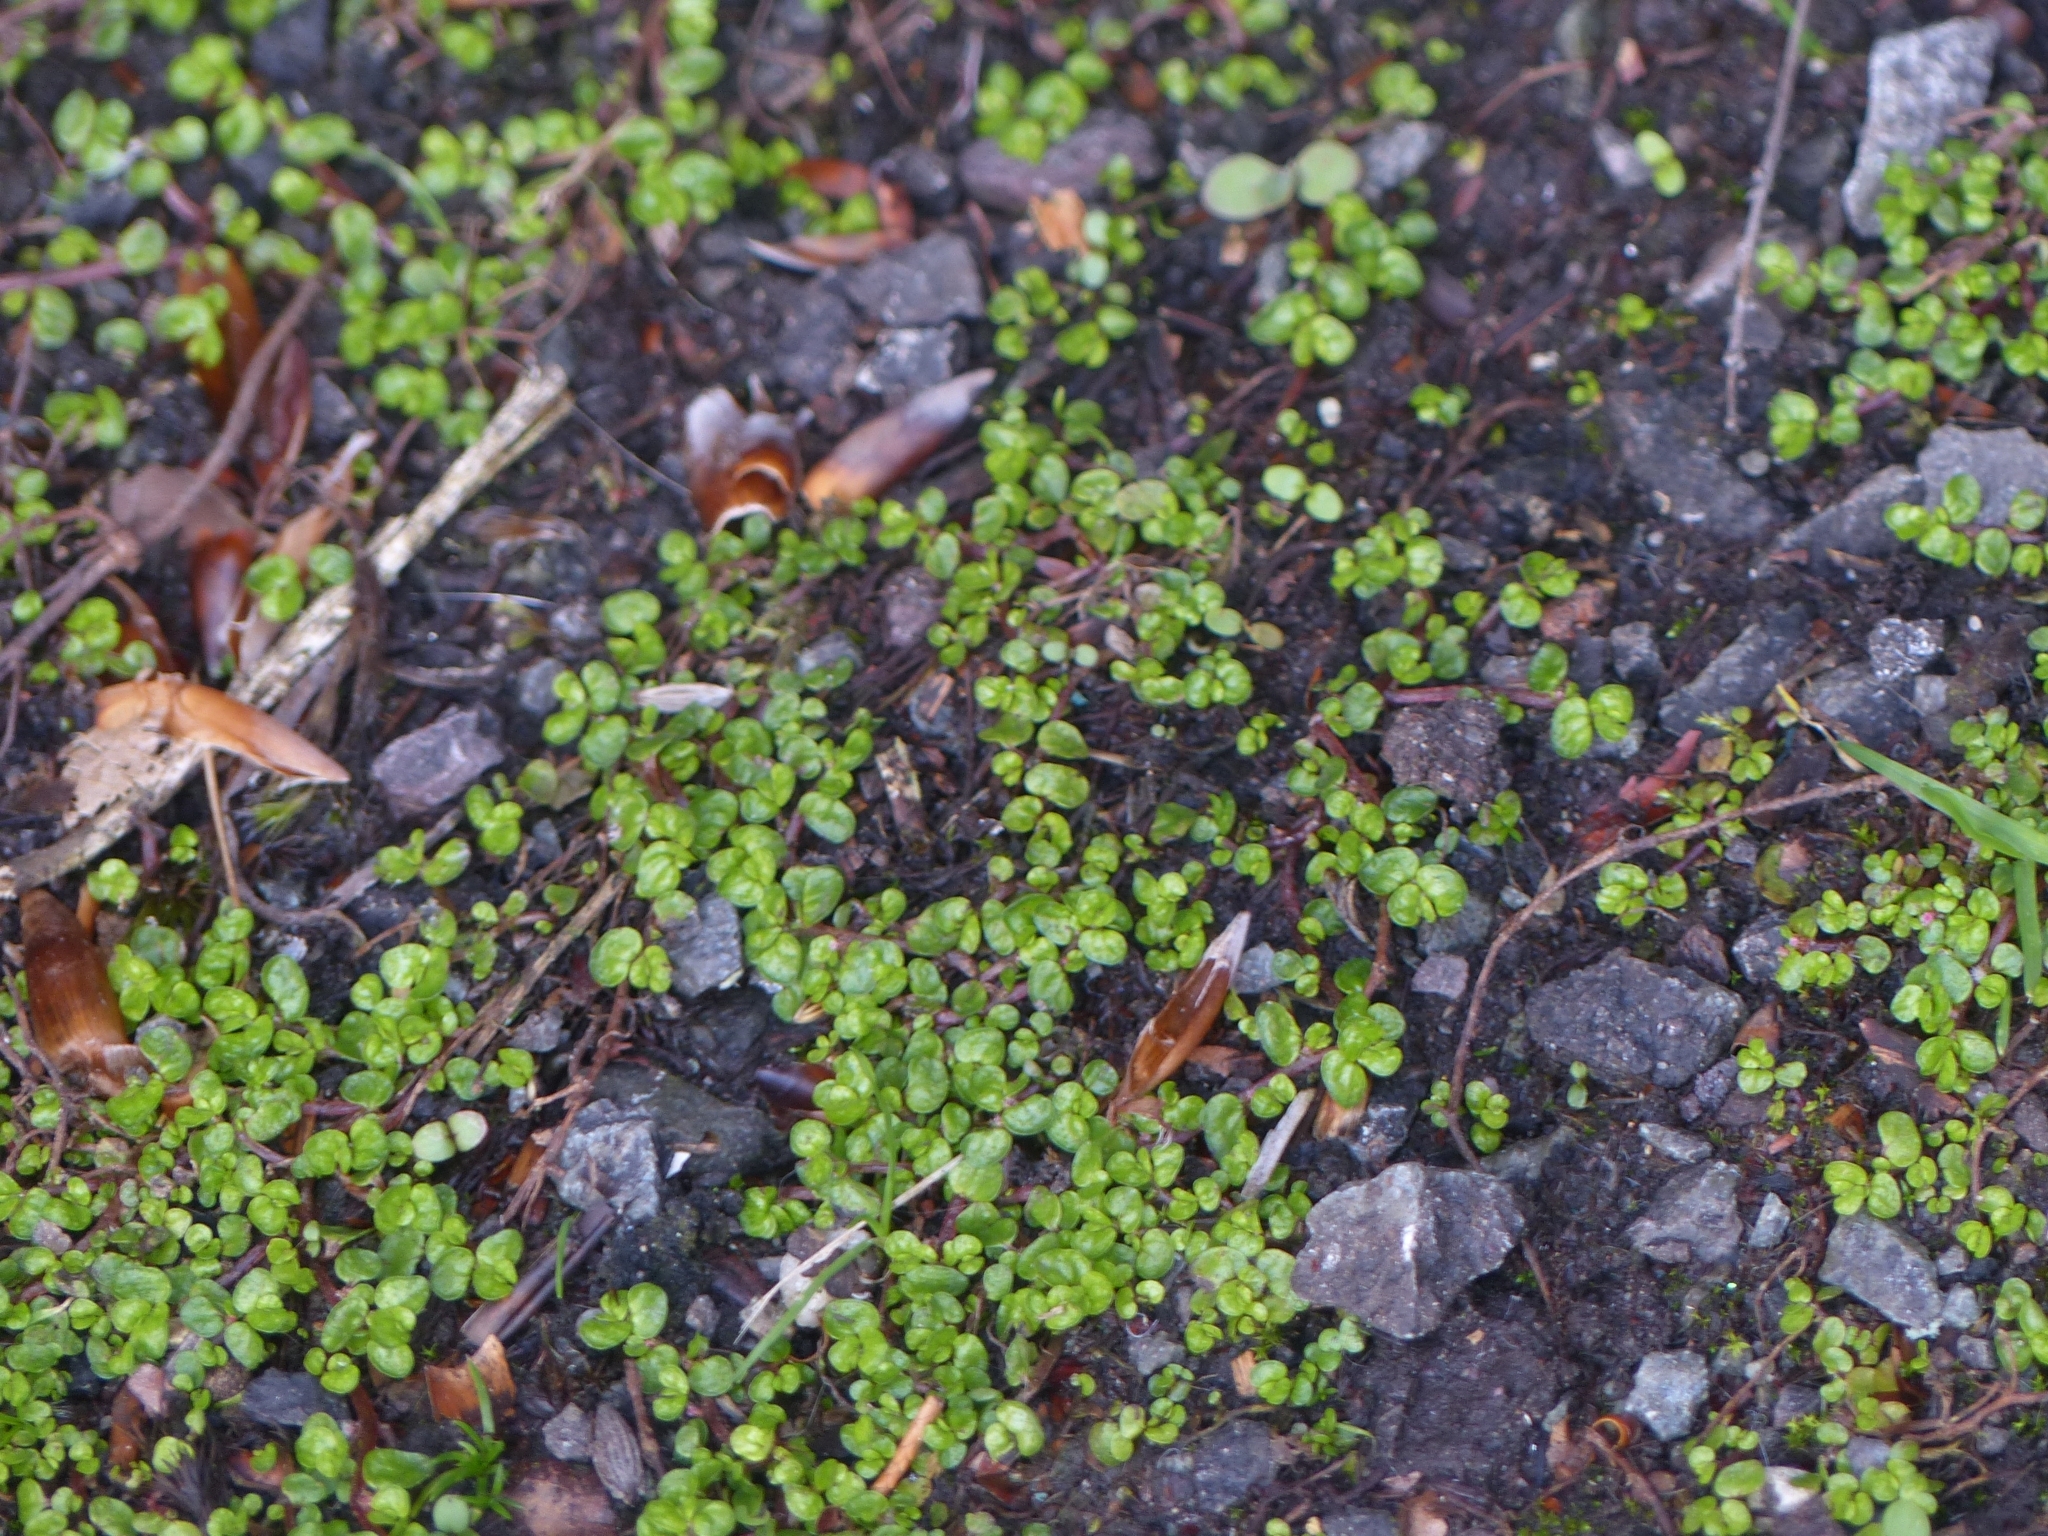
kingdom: Plantae
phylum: Tracheophyta
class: Magnoliopsida
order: Rosales
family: Urticaceae
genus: Soleirolia
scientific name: Soleirolia soleirolii
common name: Mind-your-own-business
